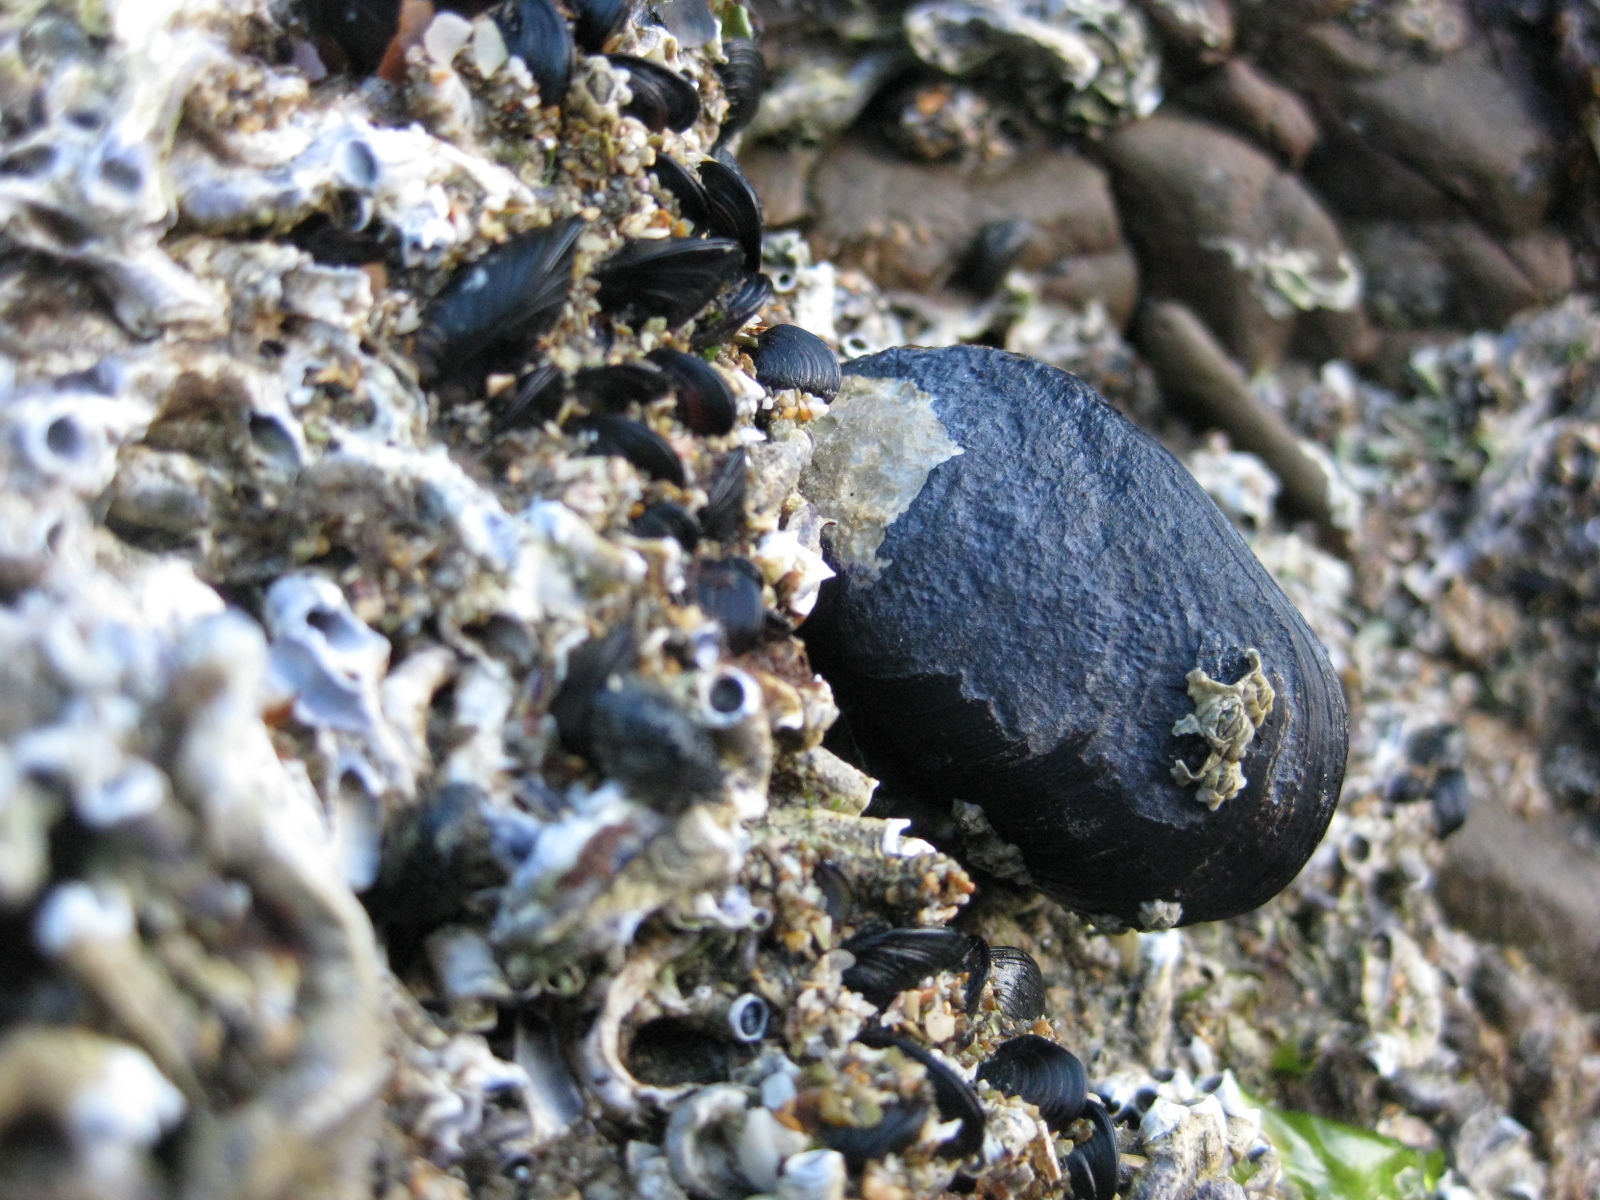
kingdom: Animalia
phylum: Mollusca
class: Bivalvia
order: Mytilida
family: Mytilidae
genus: Mytilus
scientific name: Mytilus planulatus
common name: Australian mussel
